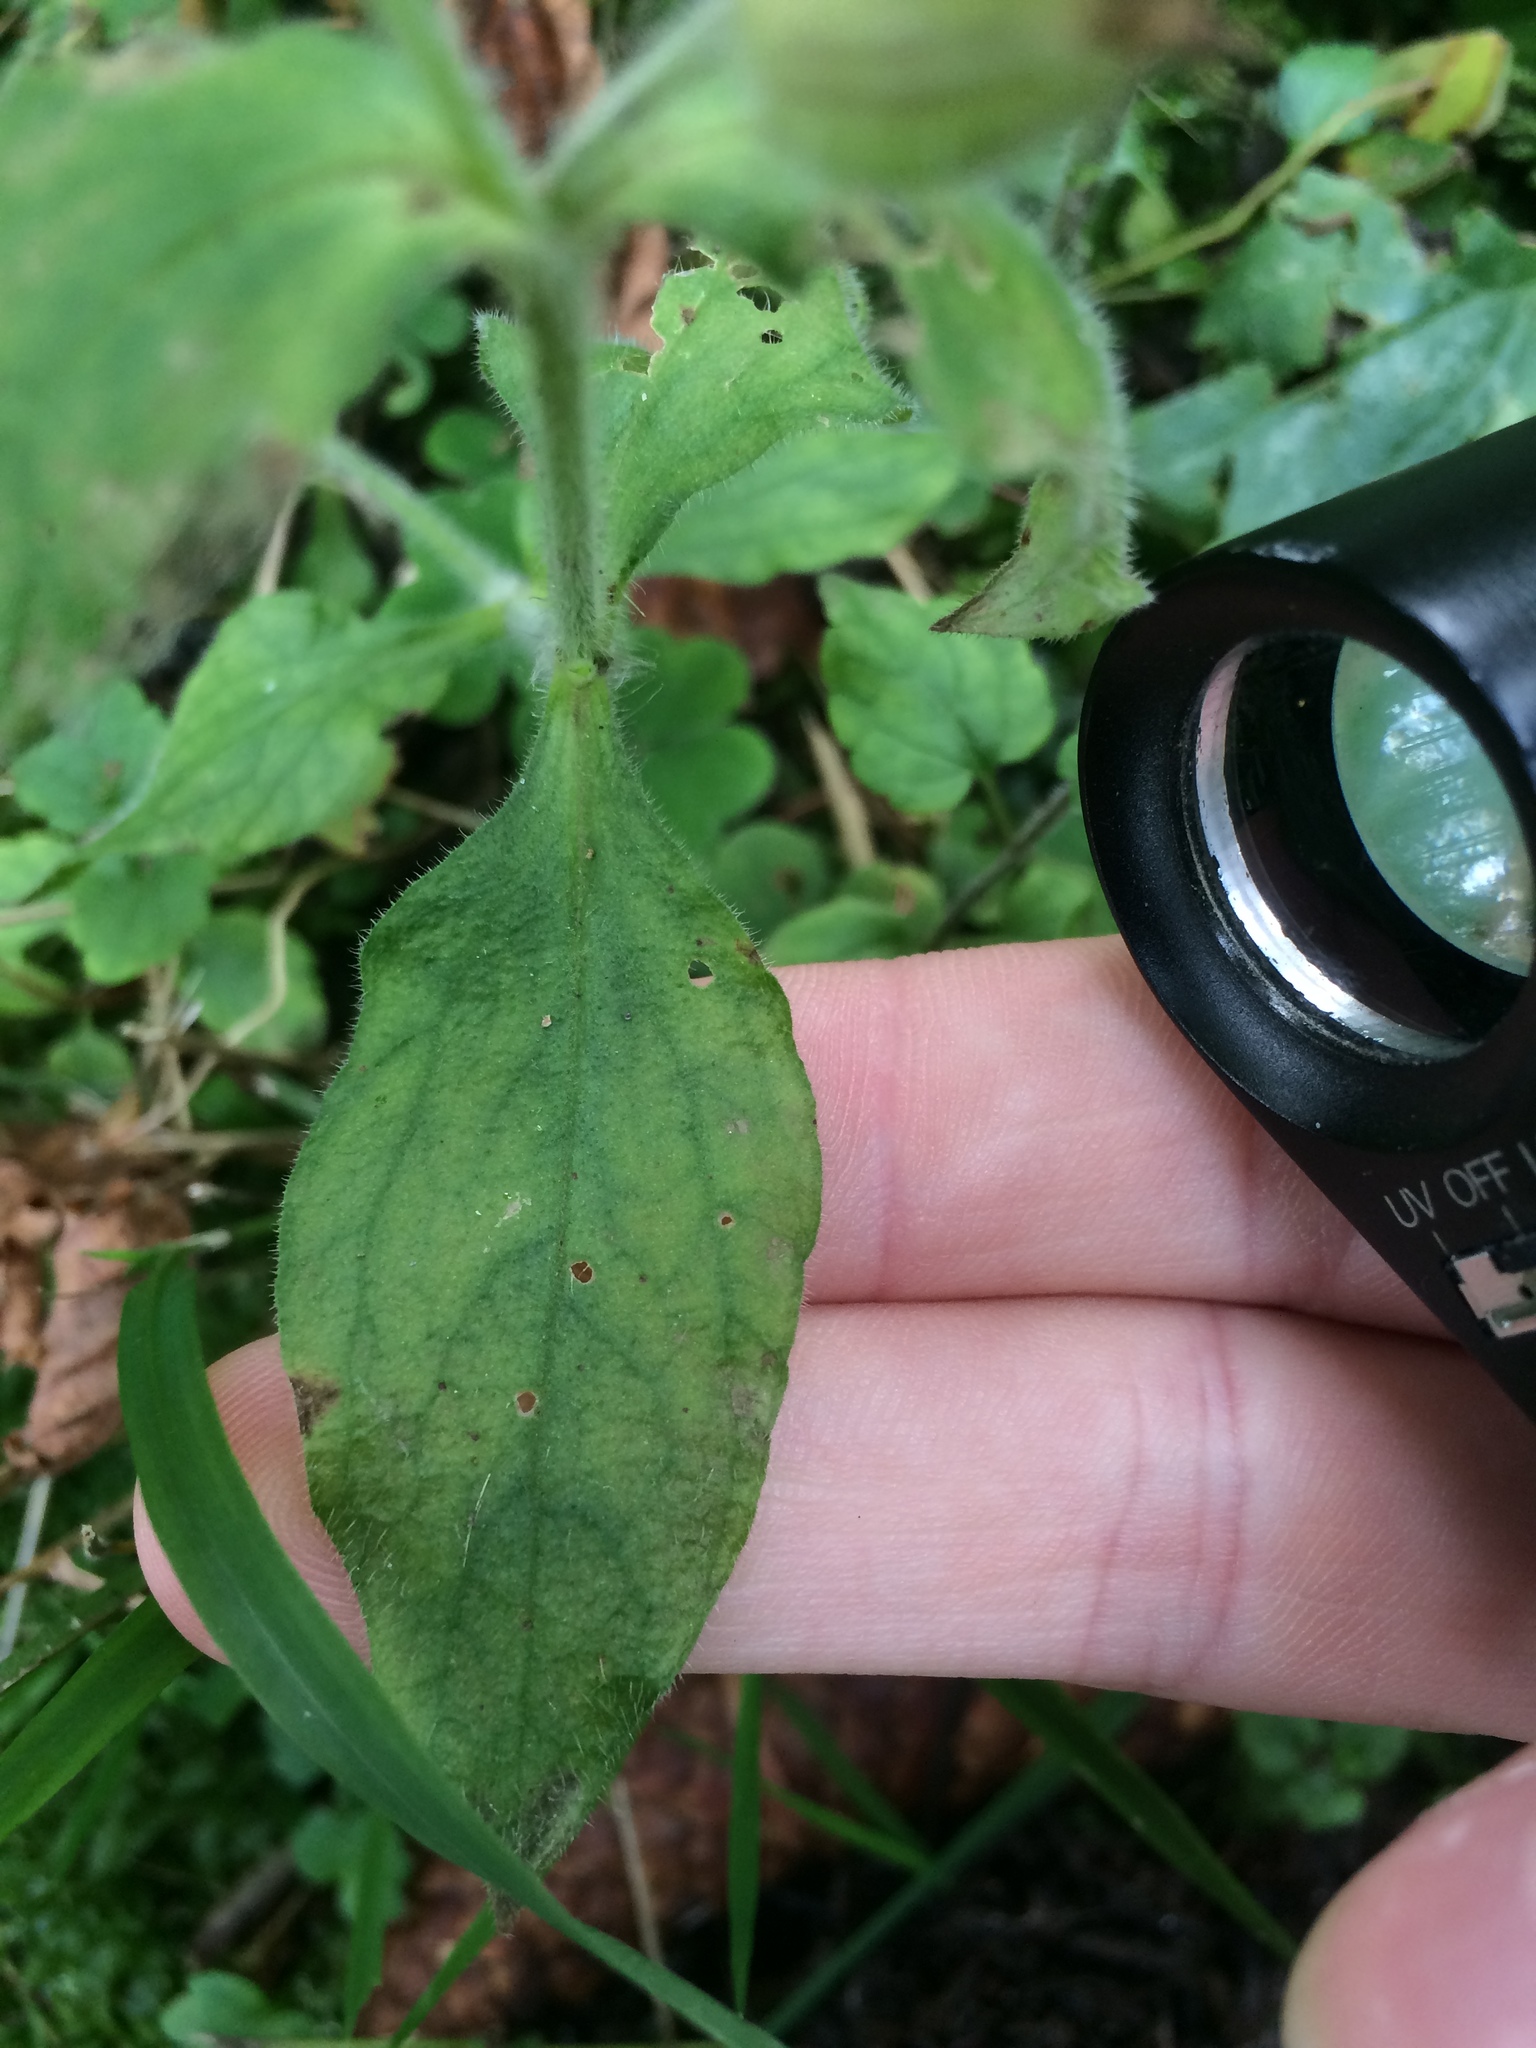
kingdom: Plantae
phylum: Tracheophyta
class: Magnoliopsida
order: Caryophyllales
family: Caryophyllaceae
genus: Silene
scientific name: Silene dioica
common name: Red campion
